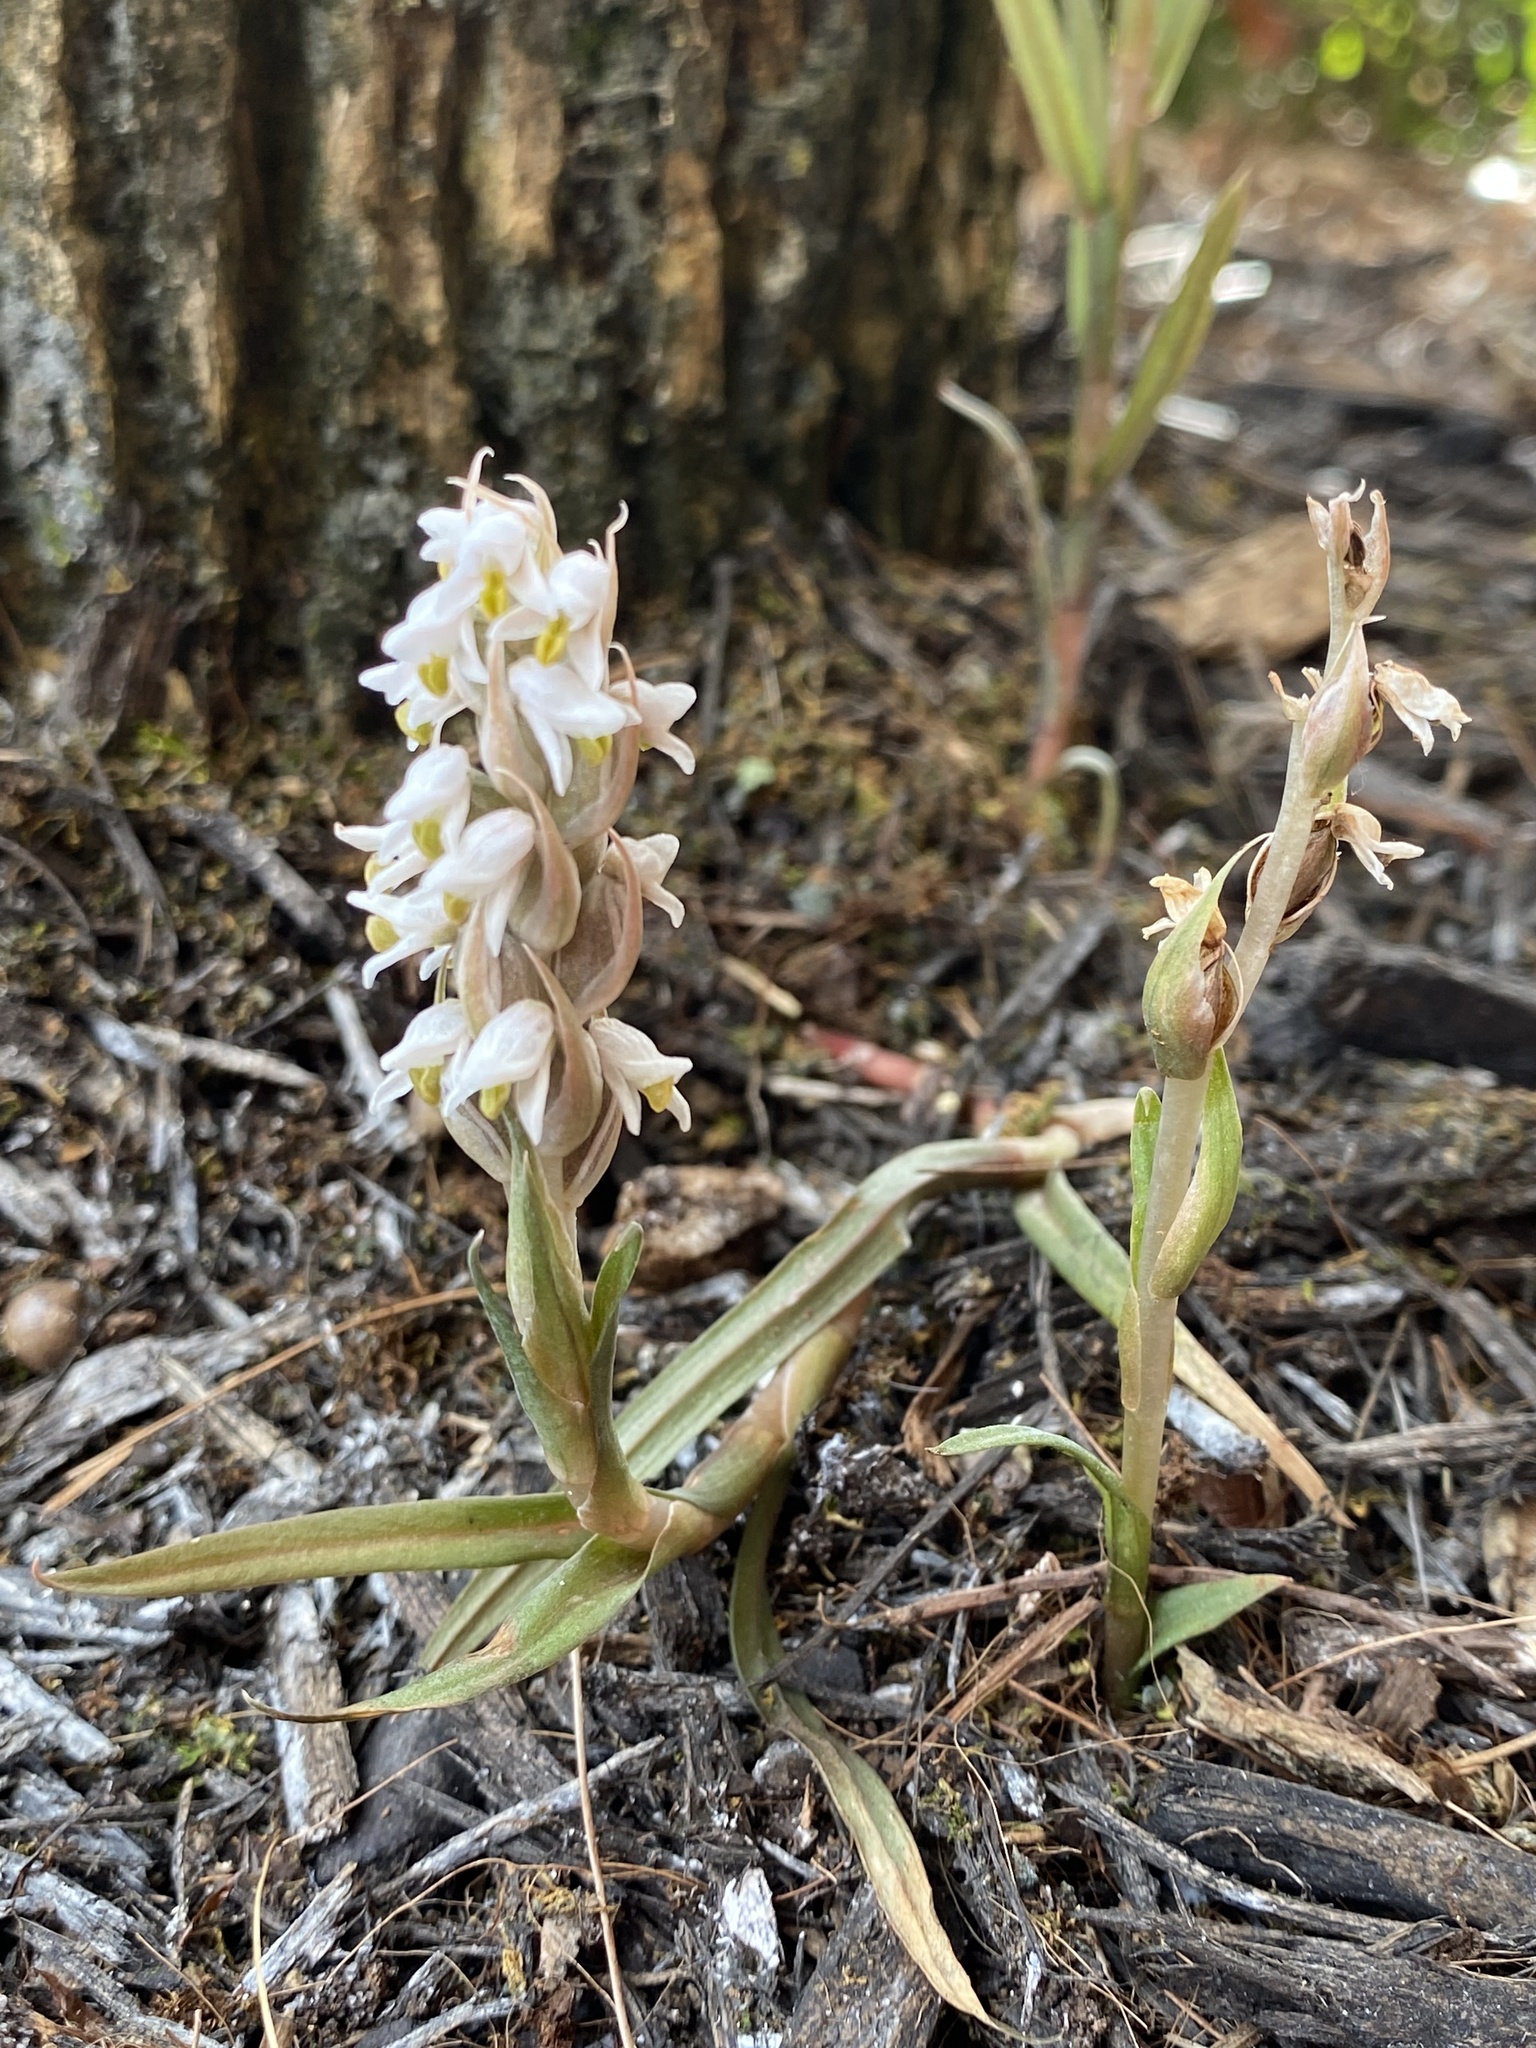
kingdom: Plantae
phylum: Tracheophyta
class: Liliopsida
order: Asparagales
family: Orchidaceae
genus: Zeuxine
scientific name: Zeuxine strateumatica
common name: Soldier's orchid
